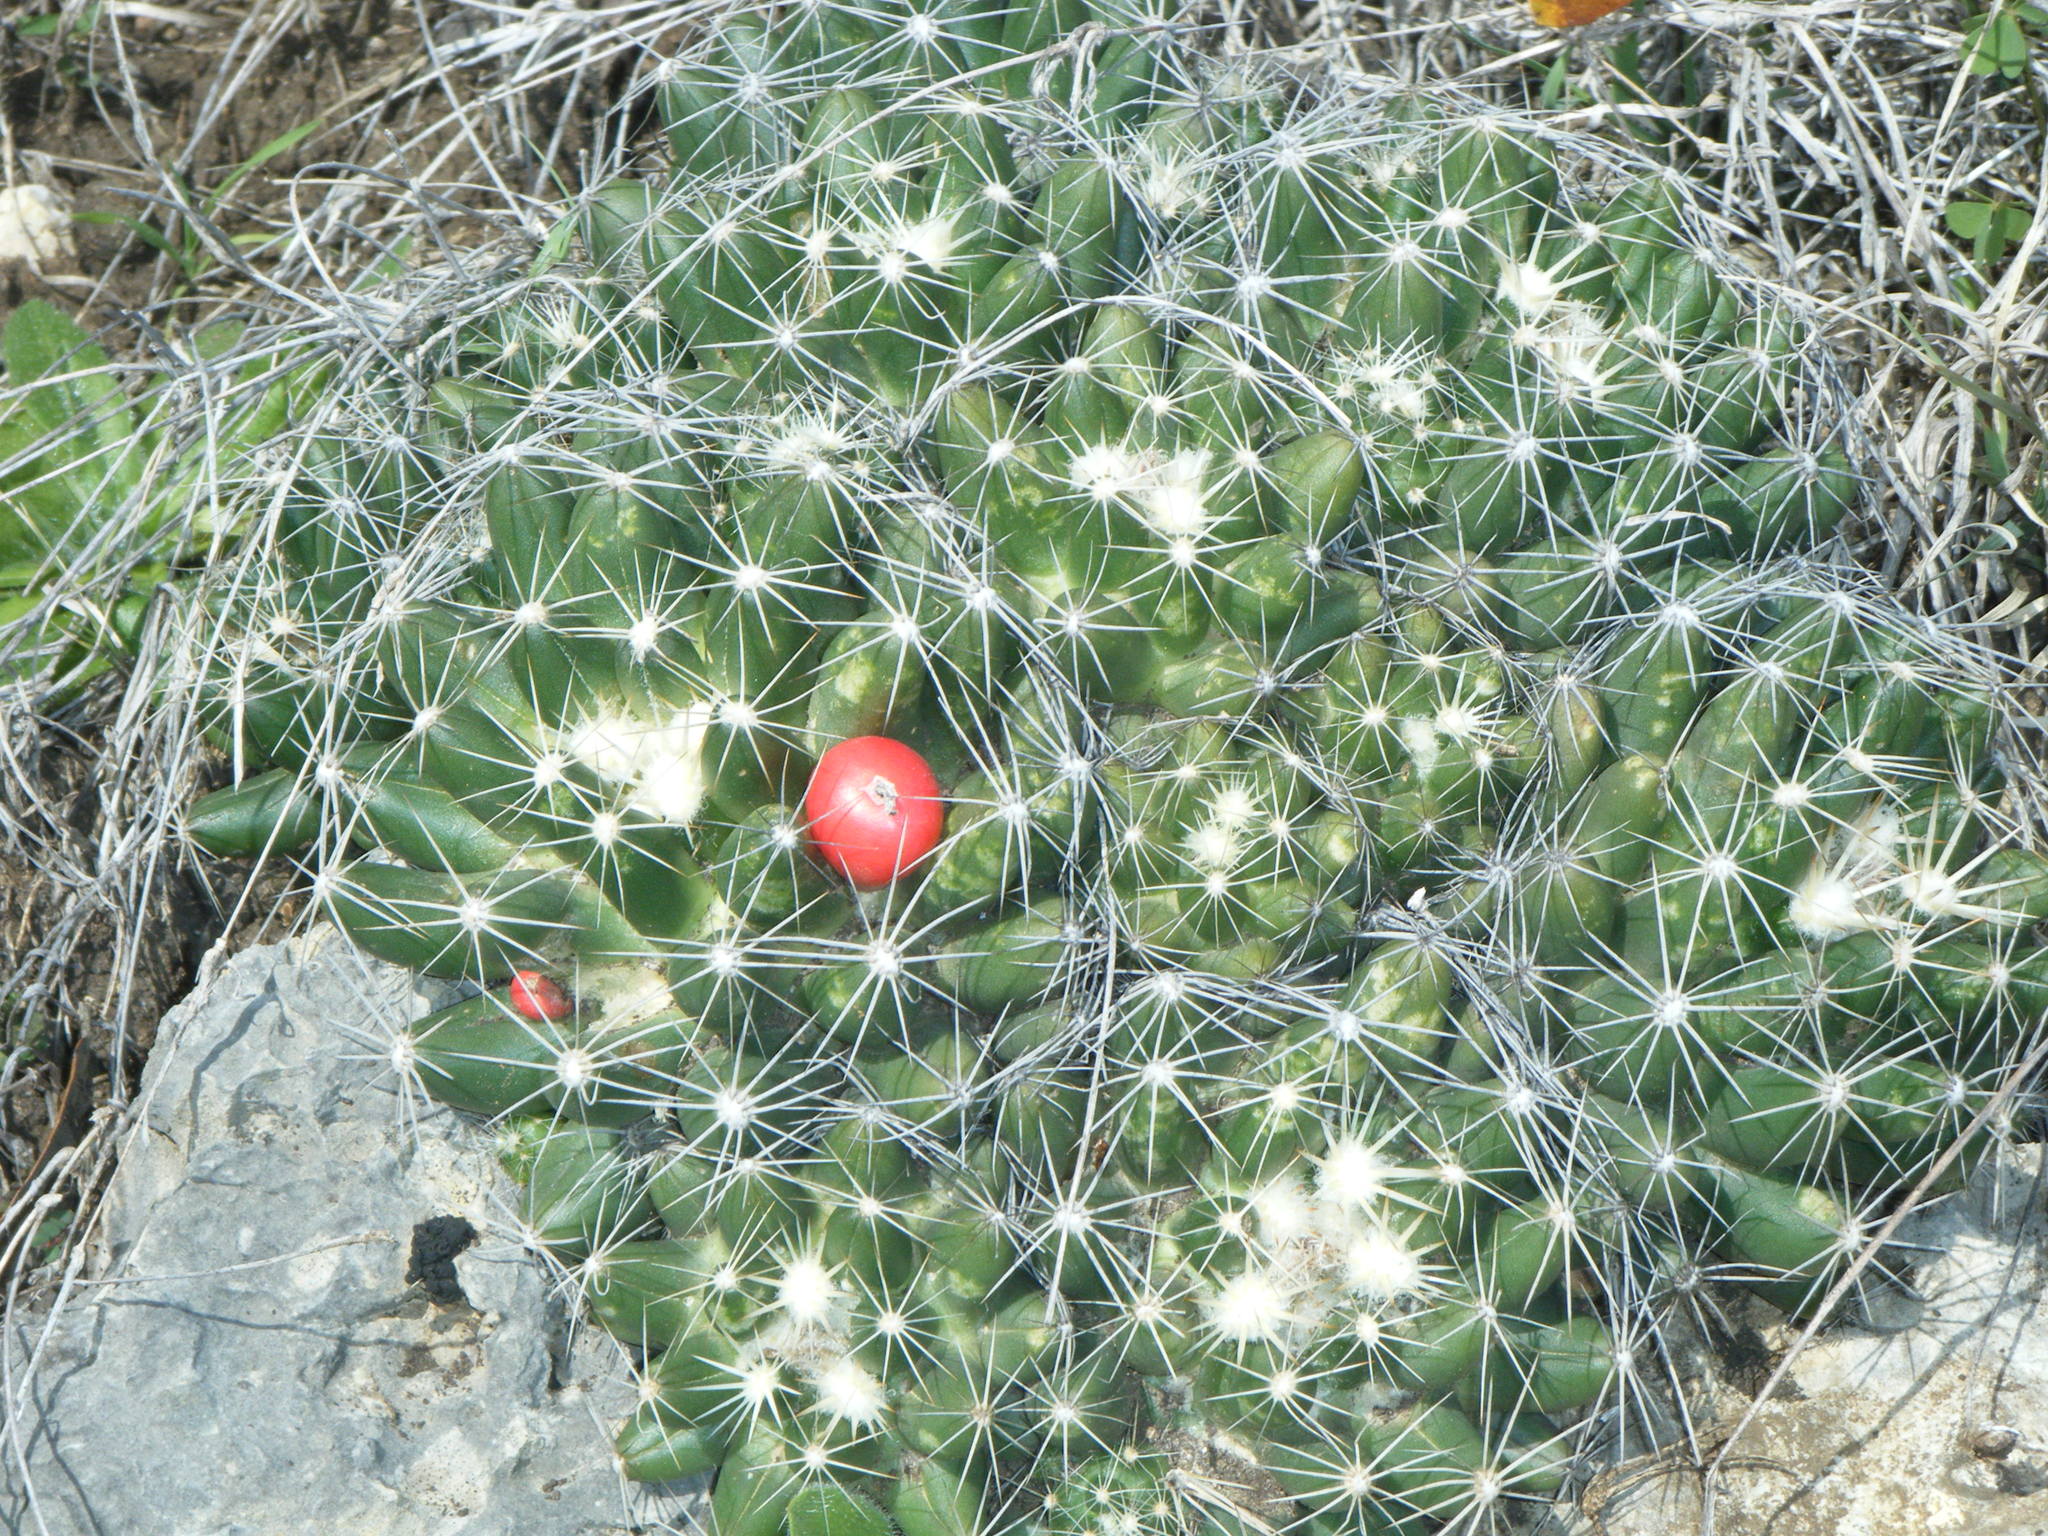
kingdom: Plantae
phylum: Tracheophyta
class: Magnoliopsida
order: Caryophyllales
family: Cactaceae
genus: Pelecyphora
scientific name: Pelecyphora missouriensis
